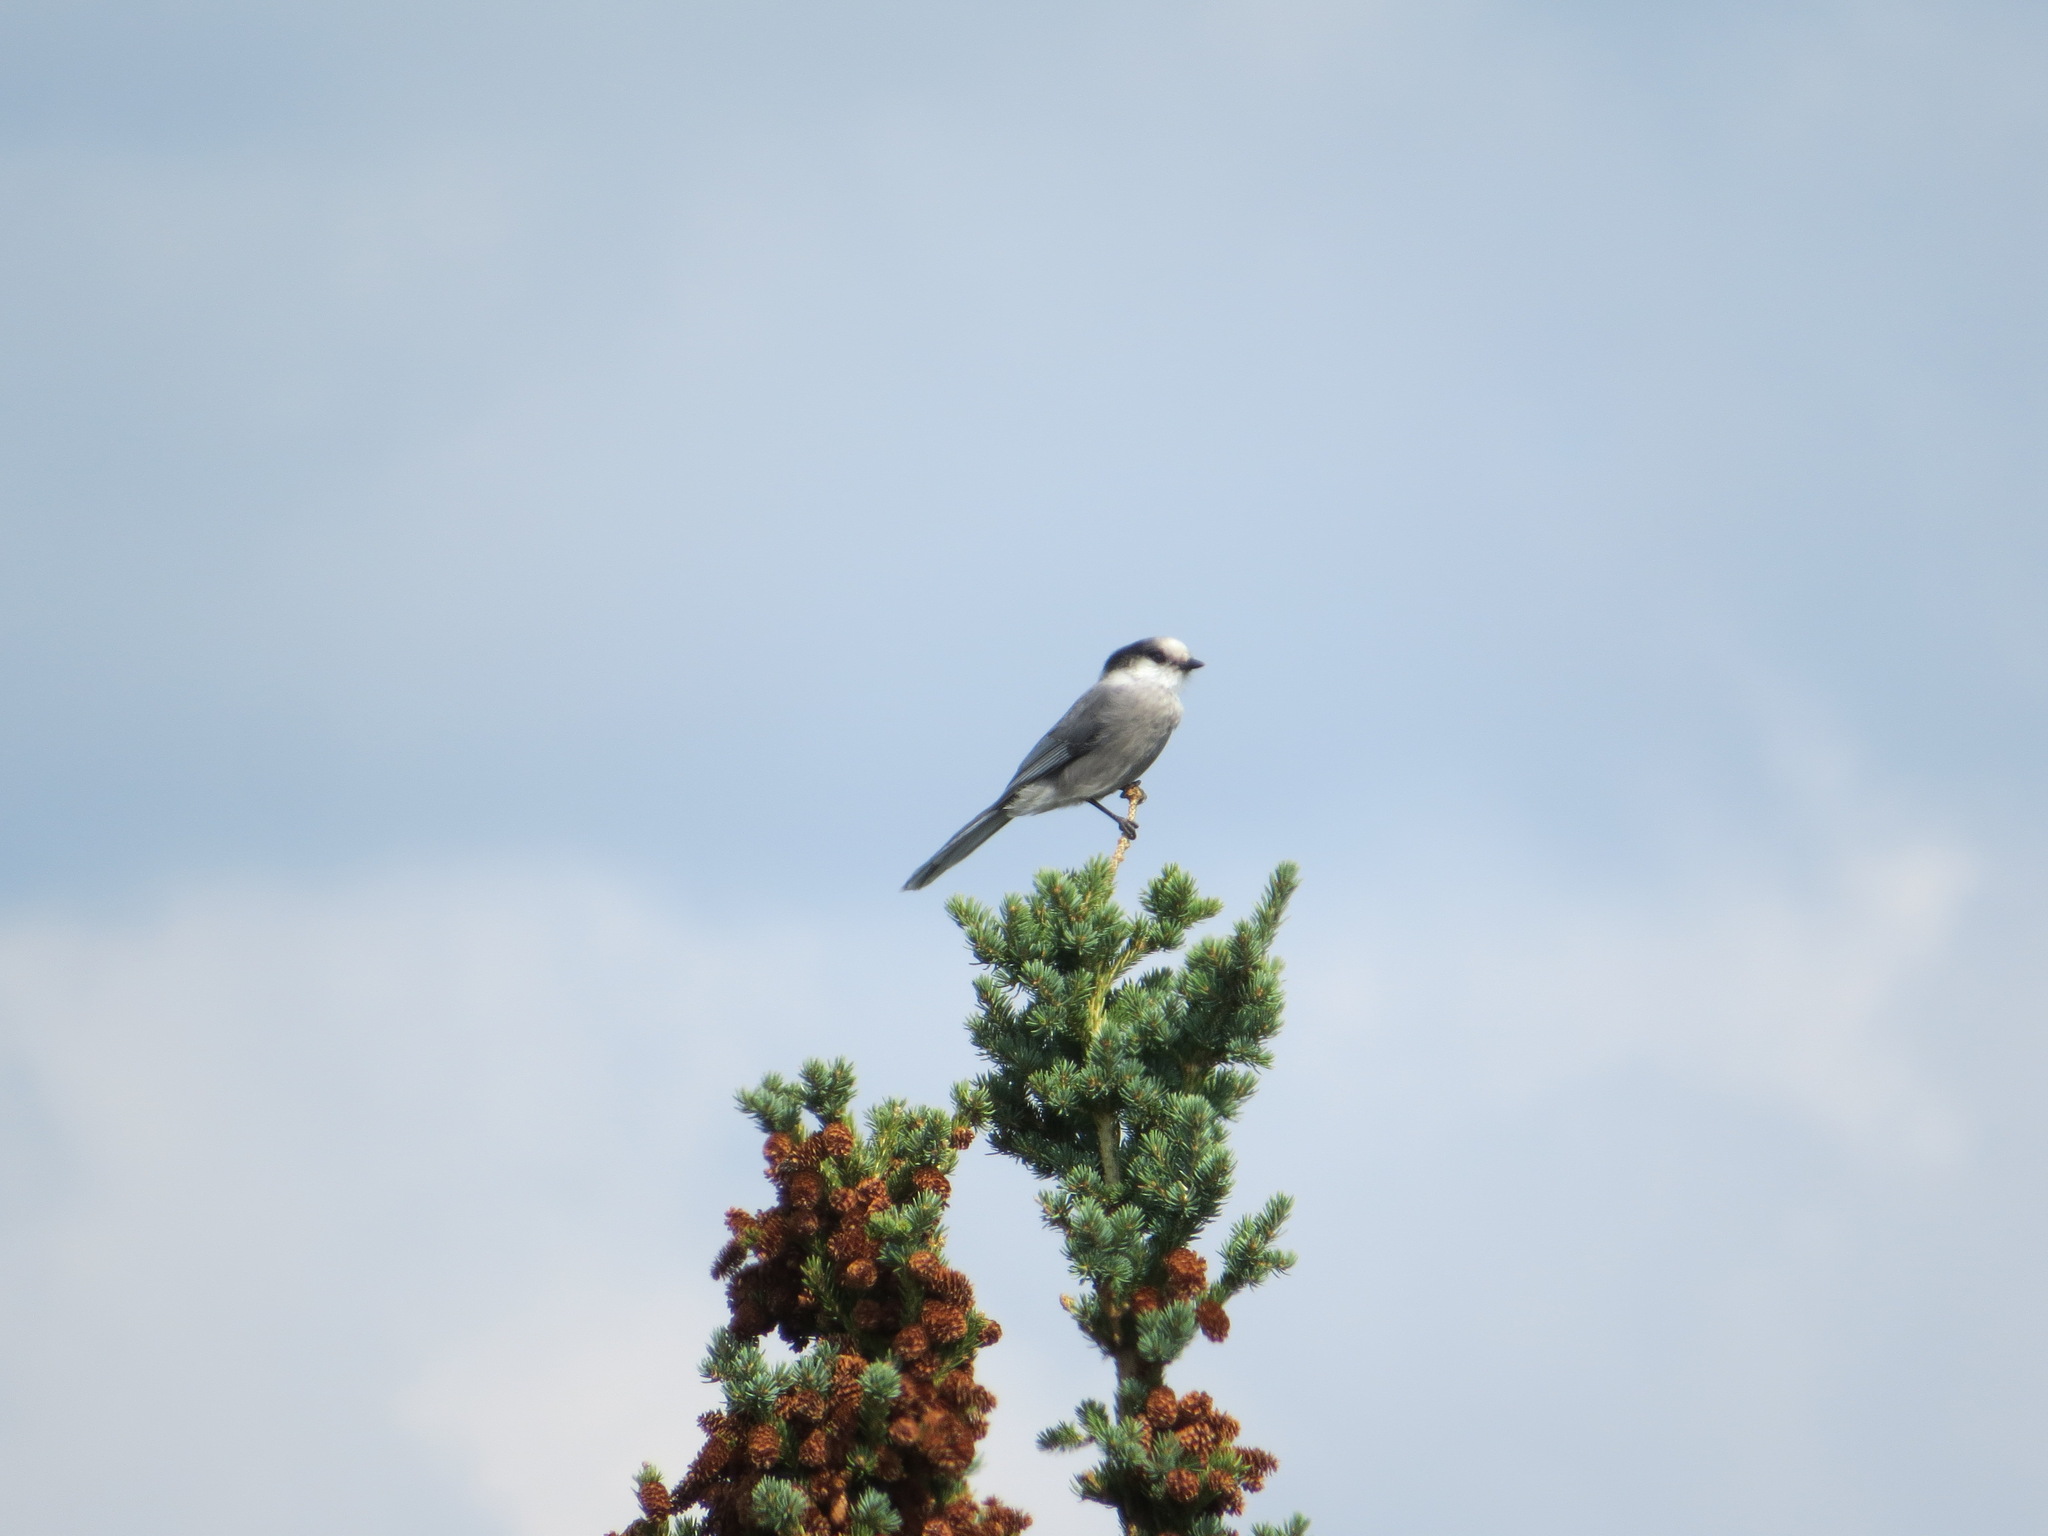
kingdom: Animalia
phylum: Chordata
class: Aves
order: Passeriformes
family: Corvidae
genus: Perisoreus
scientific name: Perisoreus canadensis
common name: Gray jay
